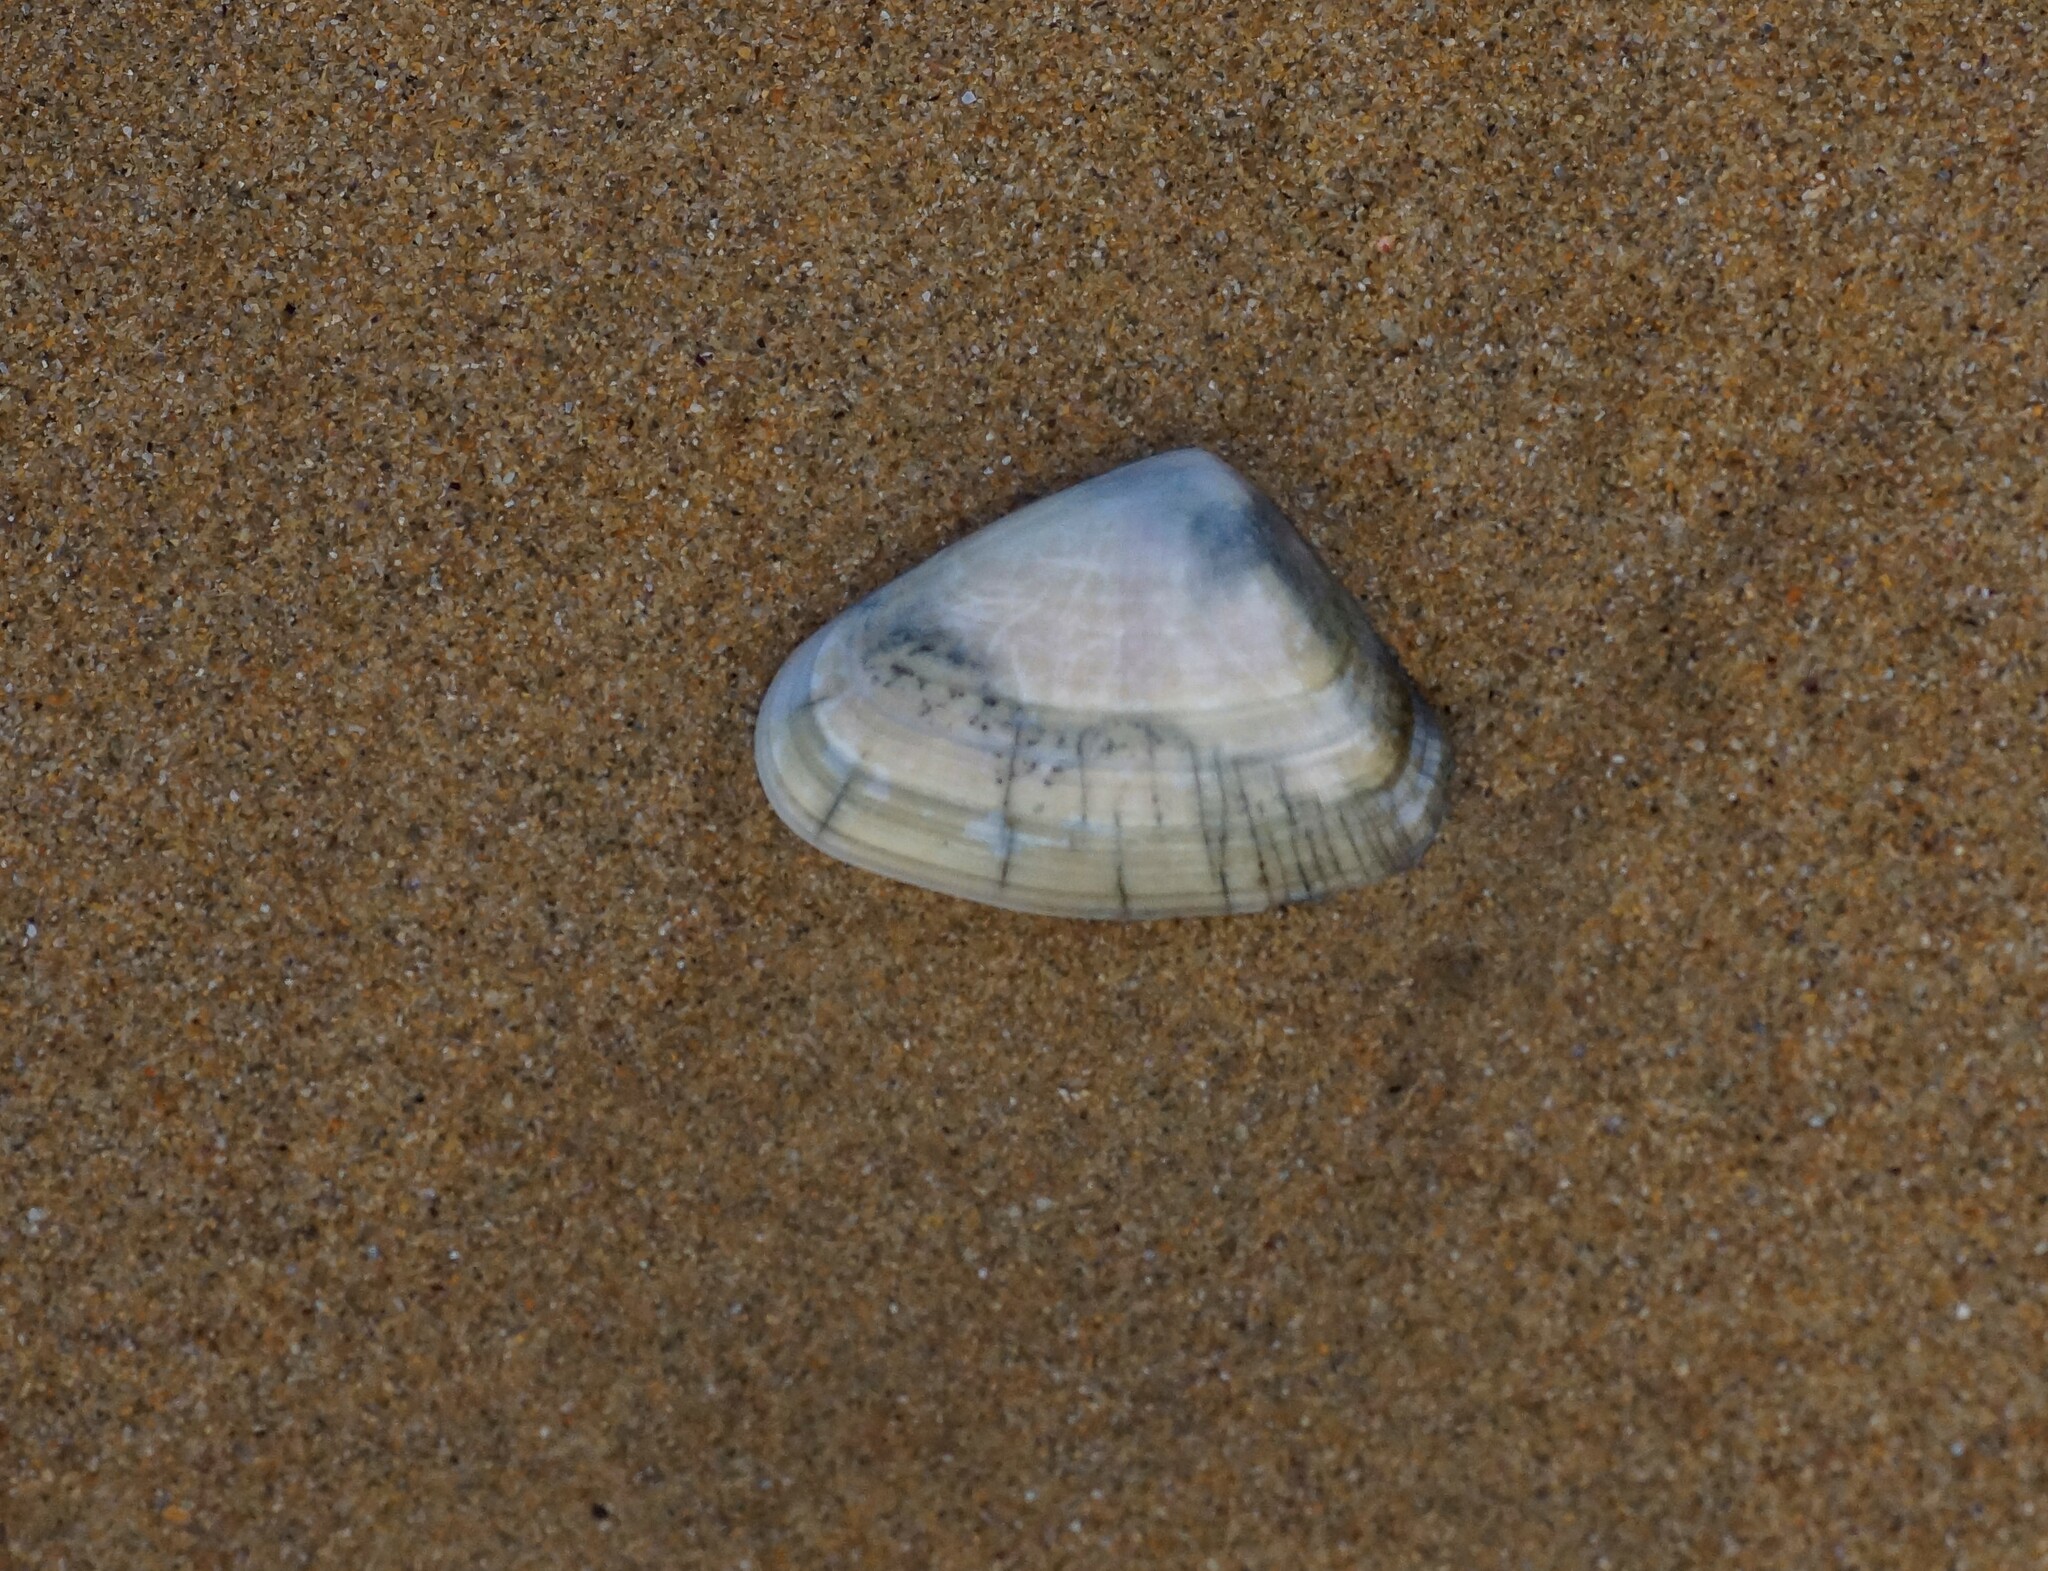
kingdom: Animalia
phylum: Mollusca
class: Bivalvia
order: Cardiida
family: Donacidae
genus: Latona
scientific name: Latona deltoides
